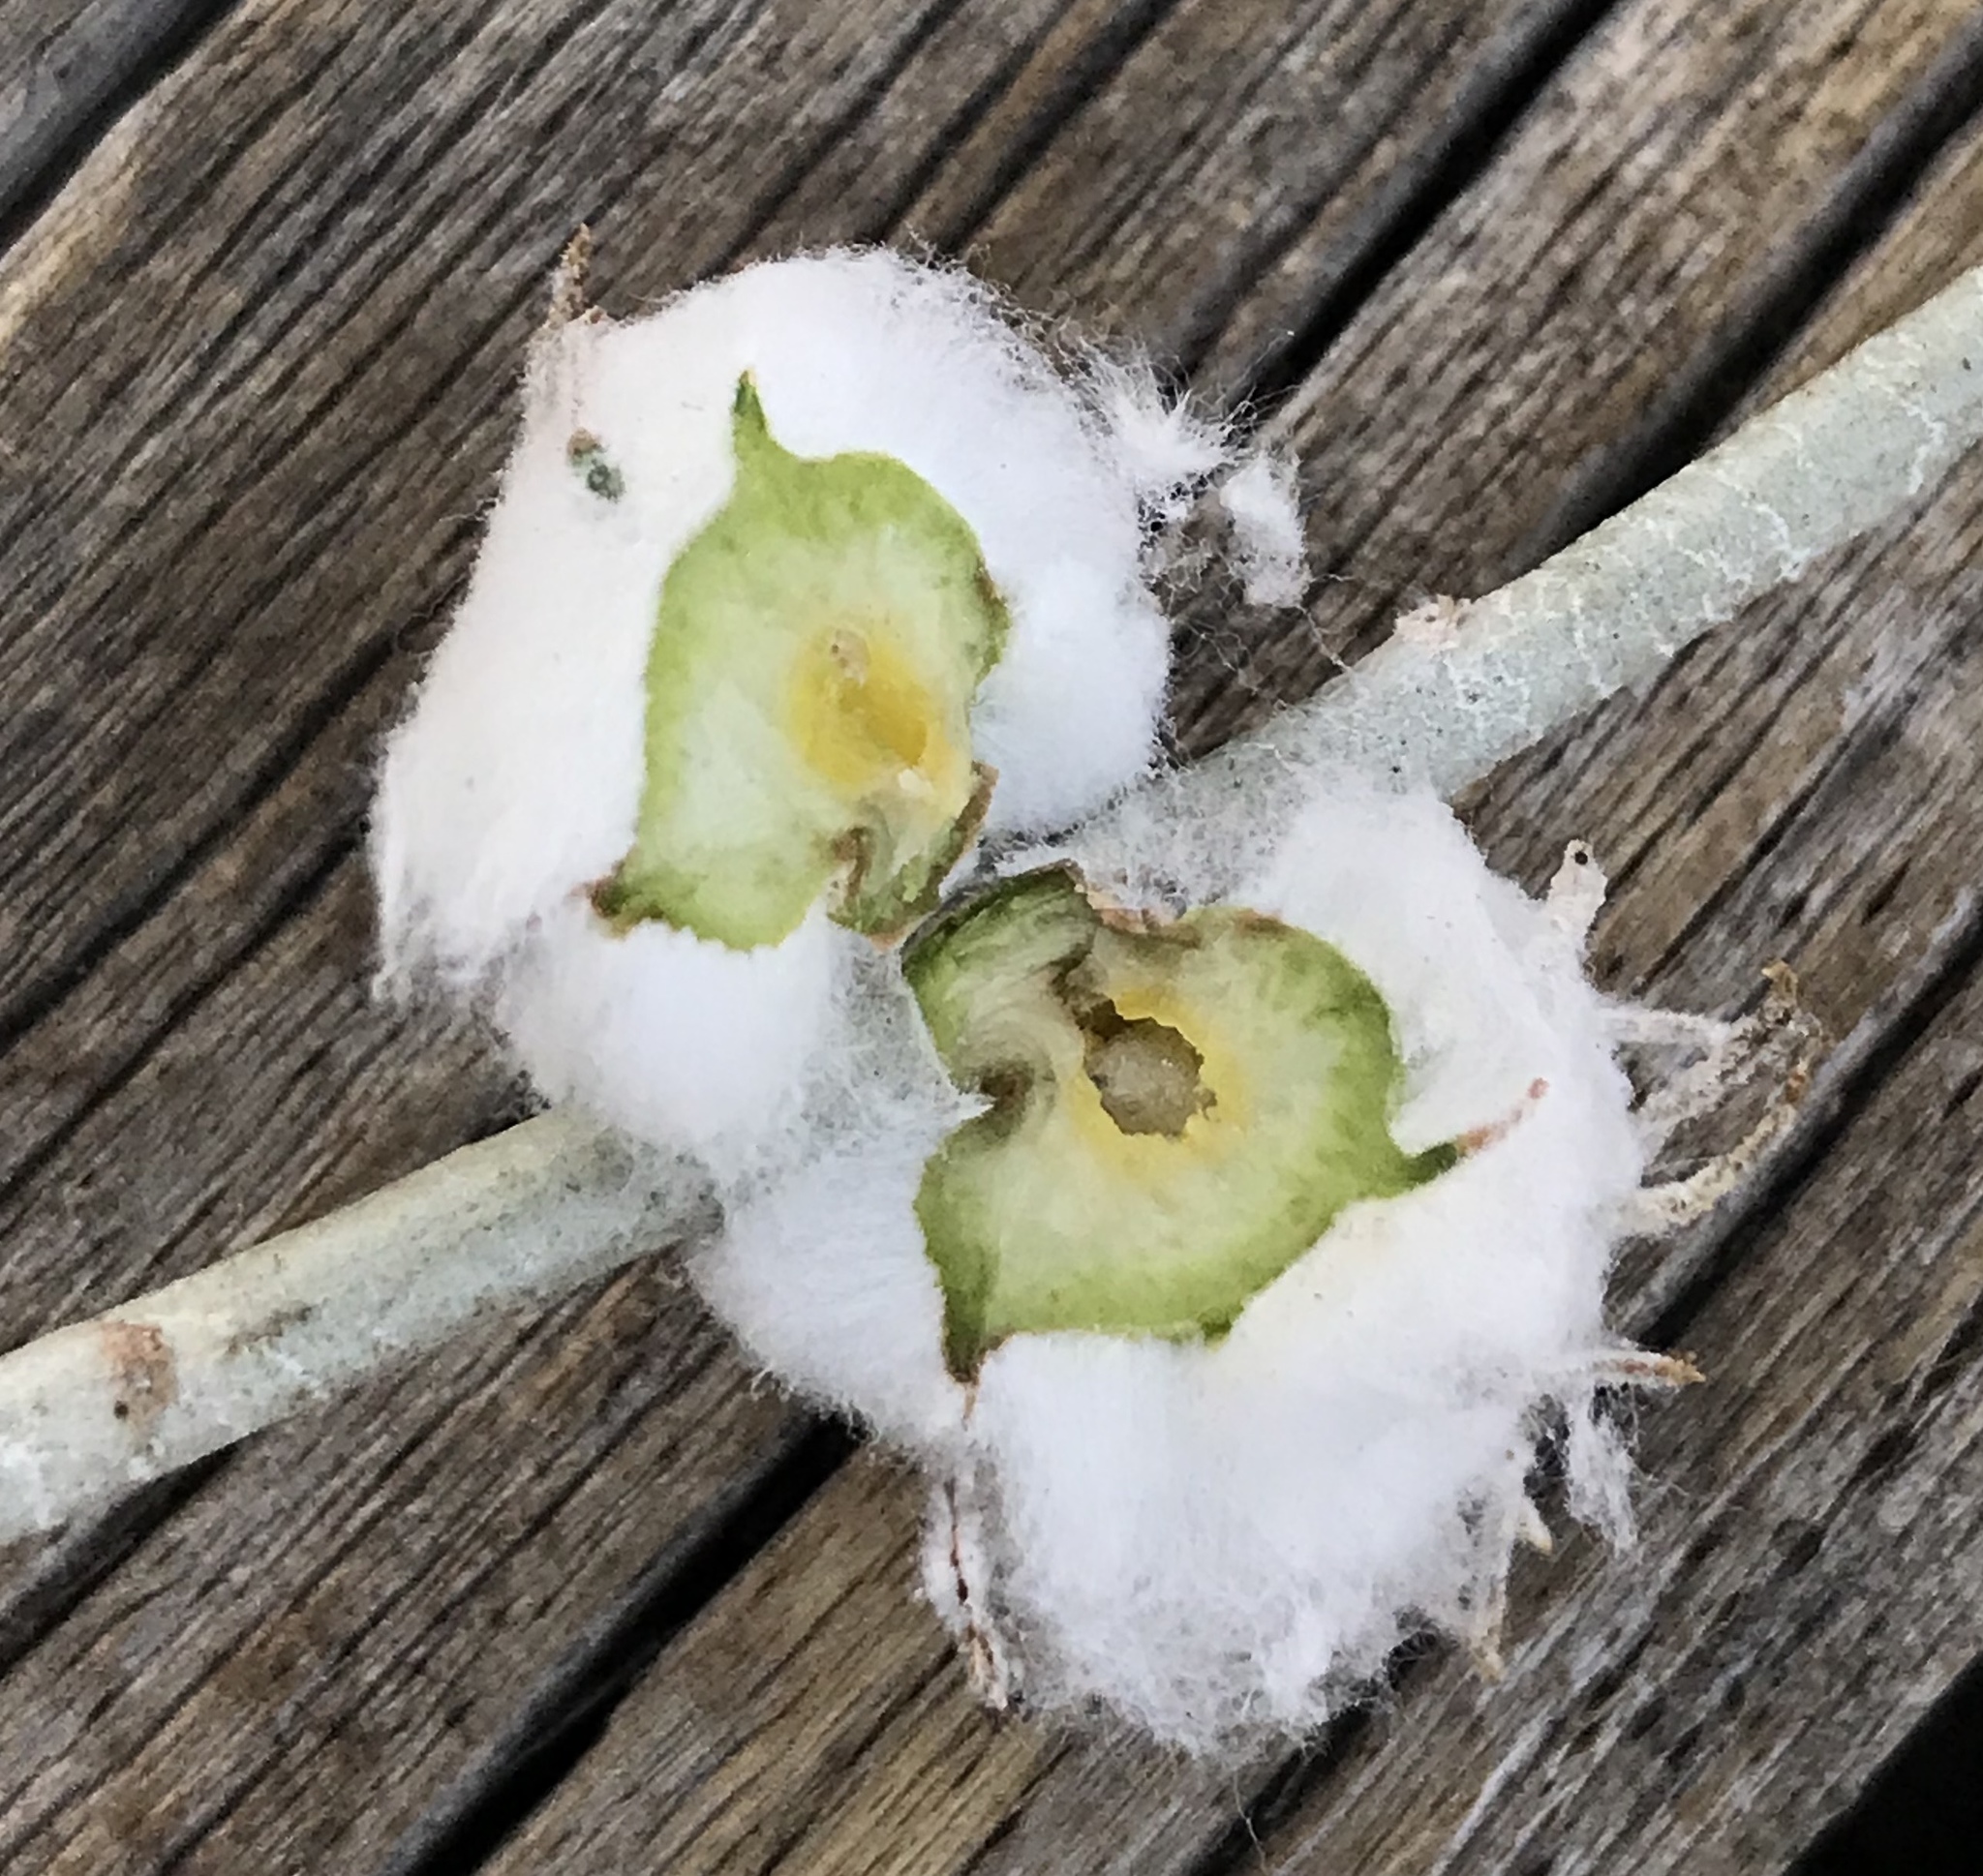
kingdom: Animalia
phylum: Arthropoda
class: Insecta
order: Diptera
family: Tephritidae
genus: Aciurina
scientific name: Aciurina bigeloviae
